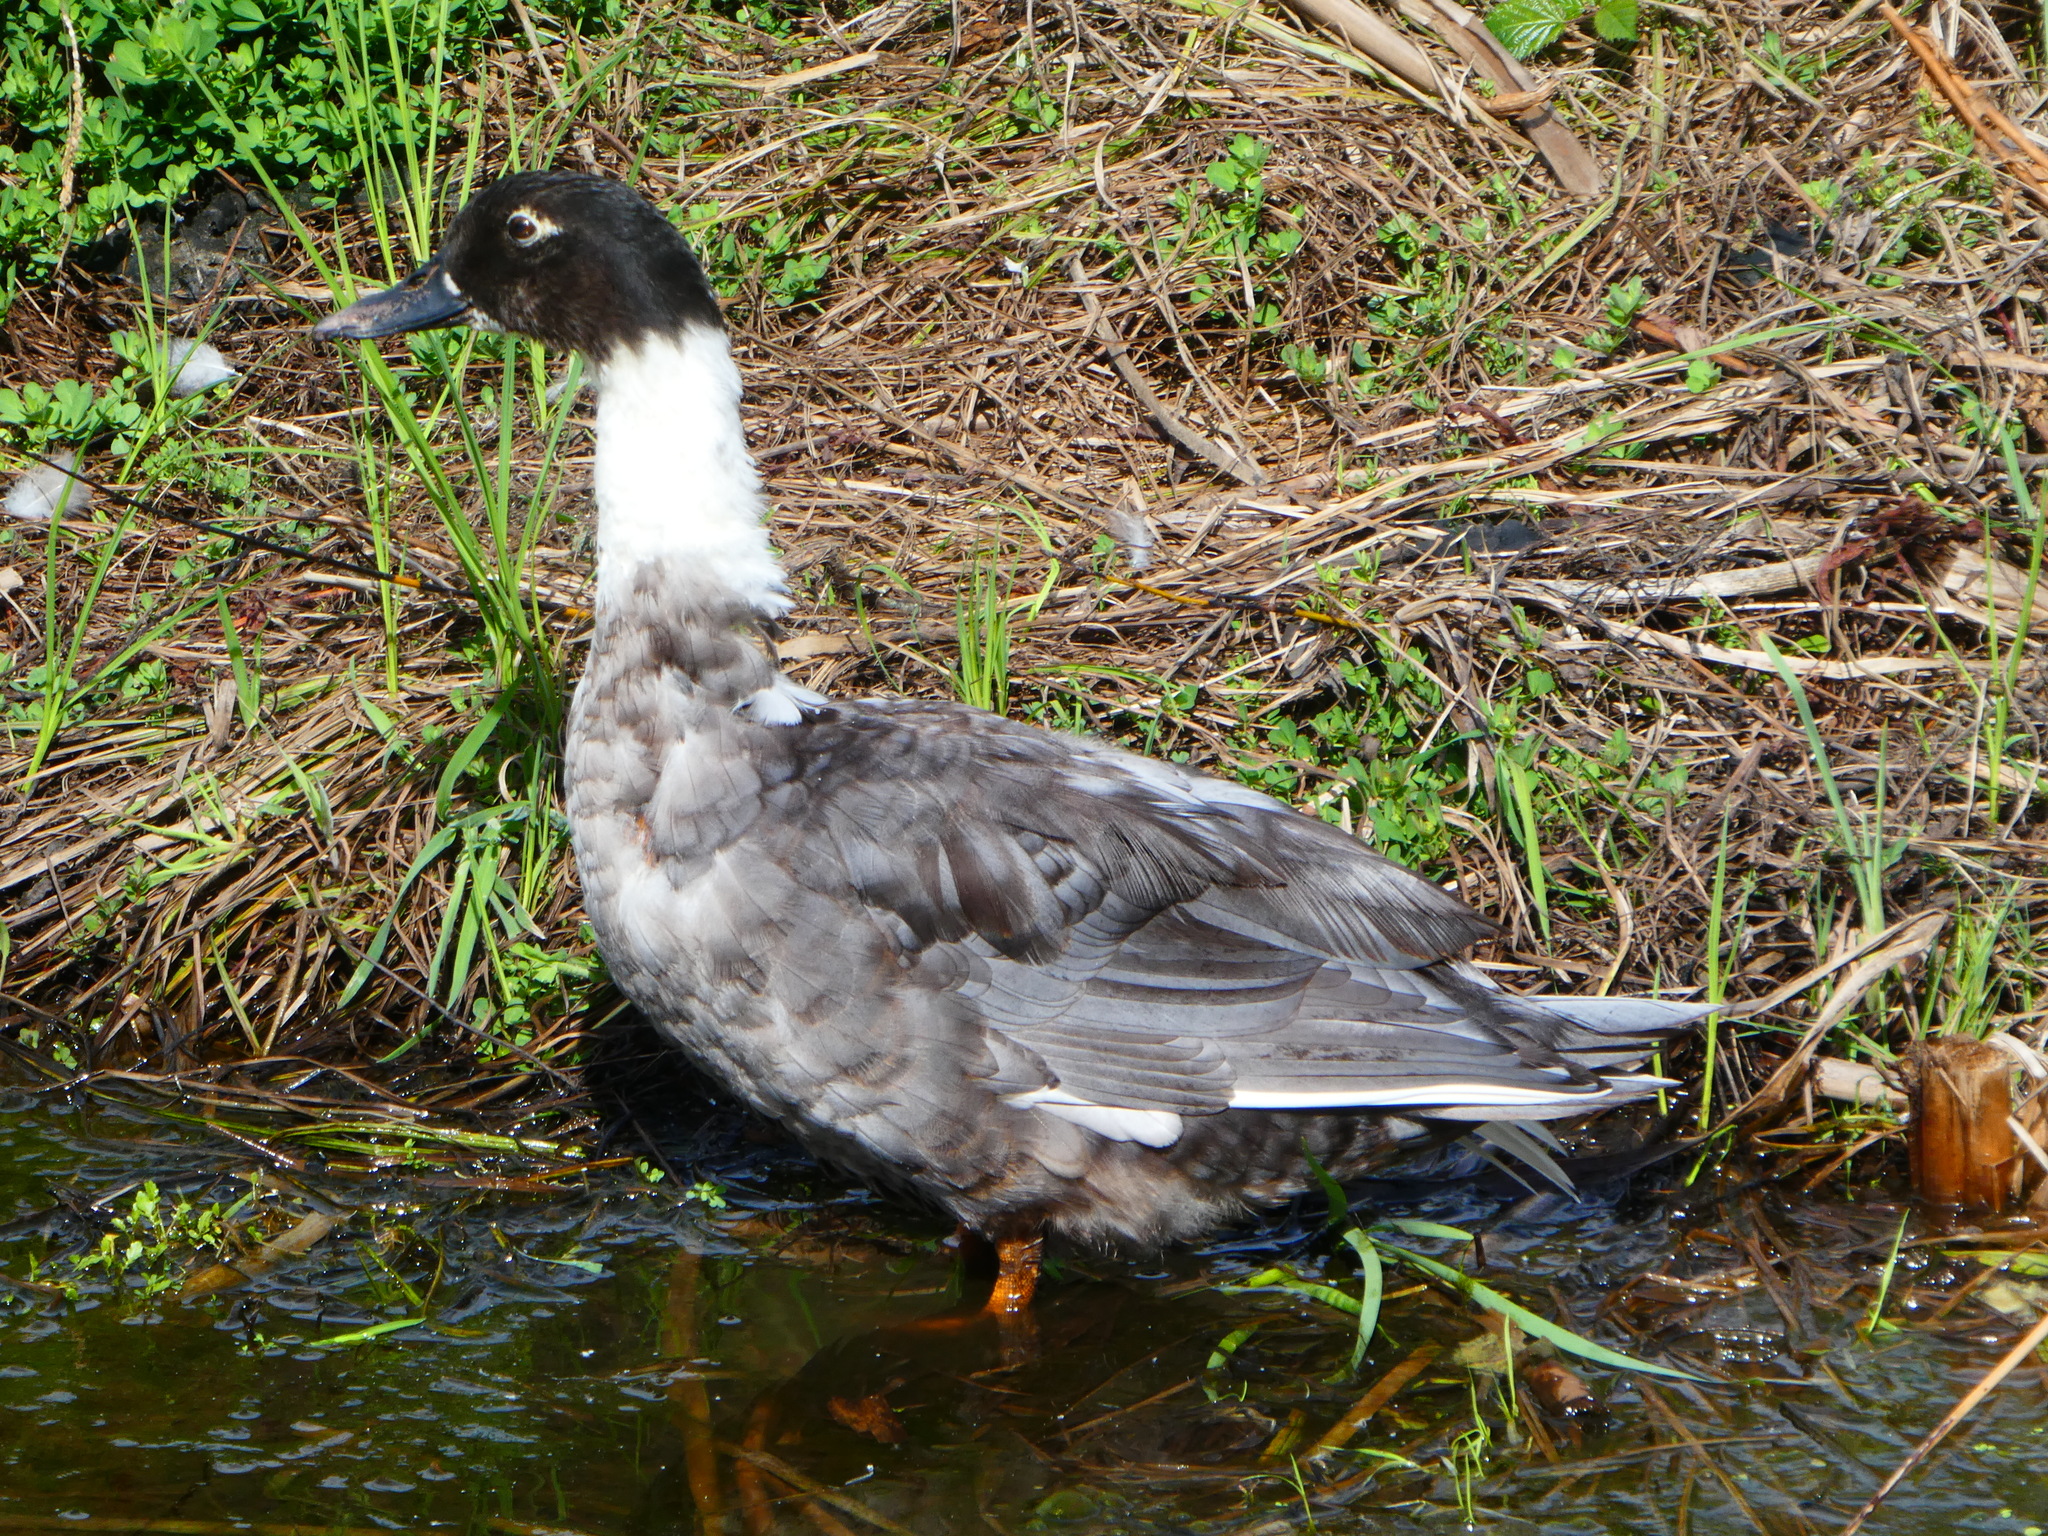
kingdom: Animalia
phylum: Chordata
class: Aves
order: Anseriformes
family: Anatidae
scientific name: Anatidae
